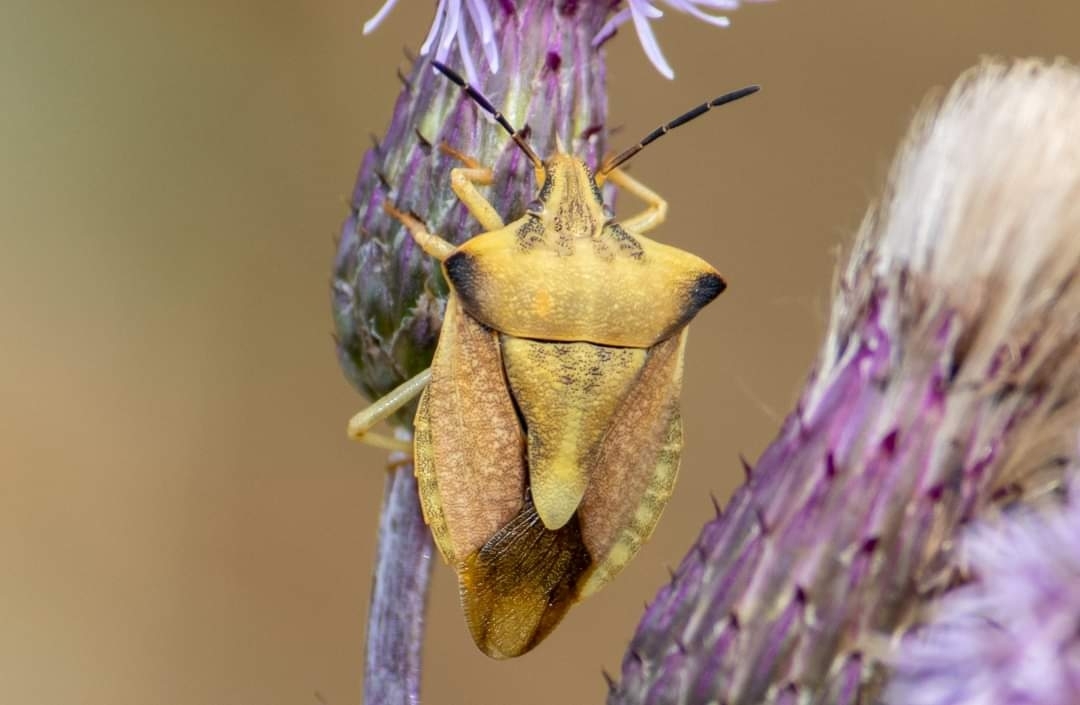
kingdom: Animalia
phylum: Arthropoda
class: Insecta
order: Hemiptera
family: Pentatomidae
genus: Carpocoris
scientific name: Carpocoris fuscispinus
